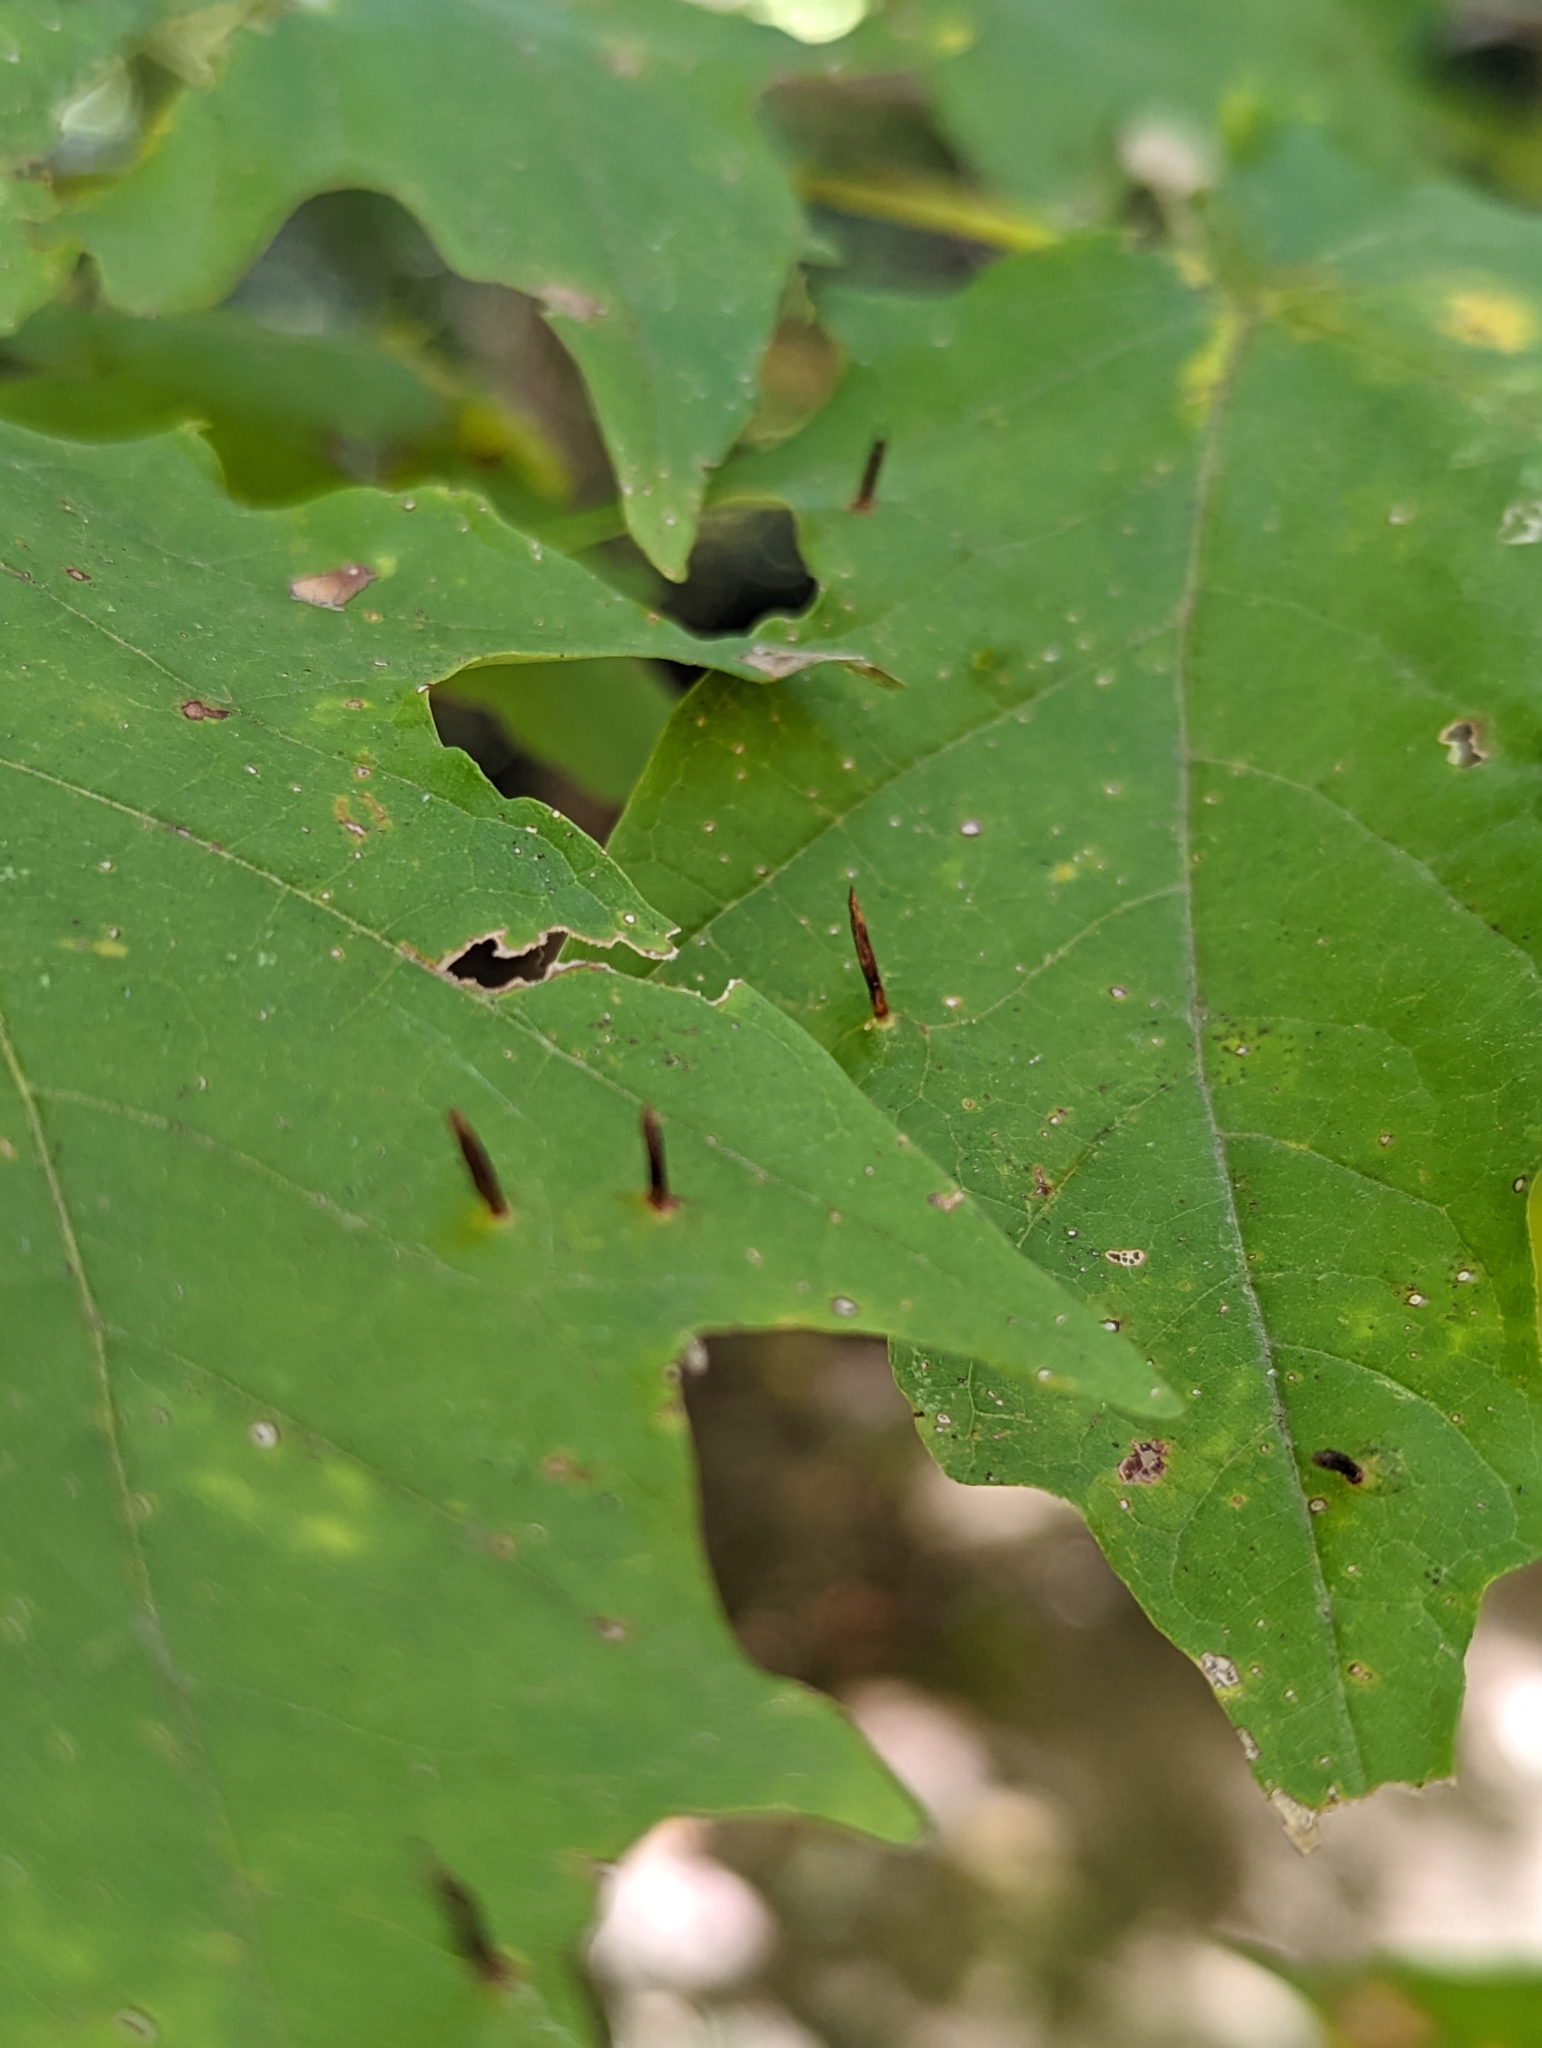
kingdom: Animalia
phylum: Arthropoda
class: Arachnida
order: Trombidiformes
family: Eriophyidae
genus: Vasates
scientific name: Vasates aceriscrumena
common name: Maple spindle gall mite
